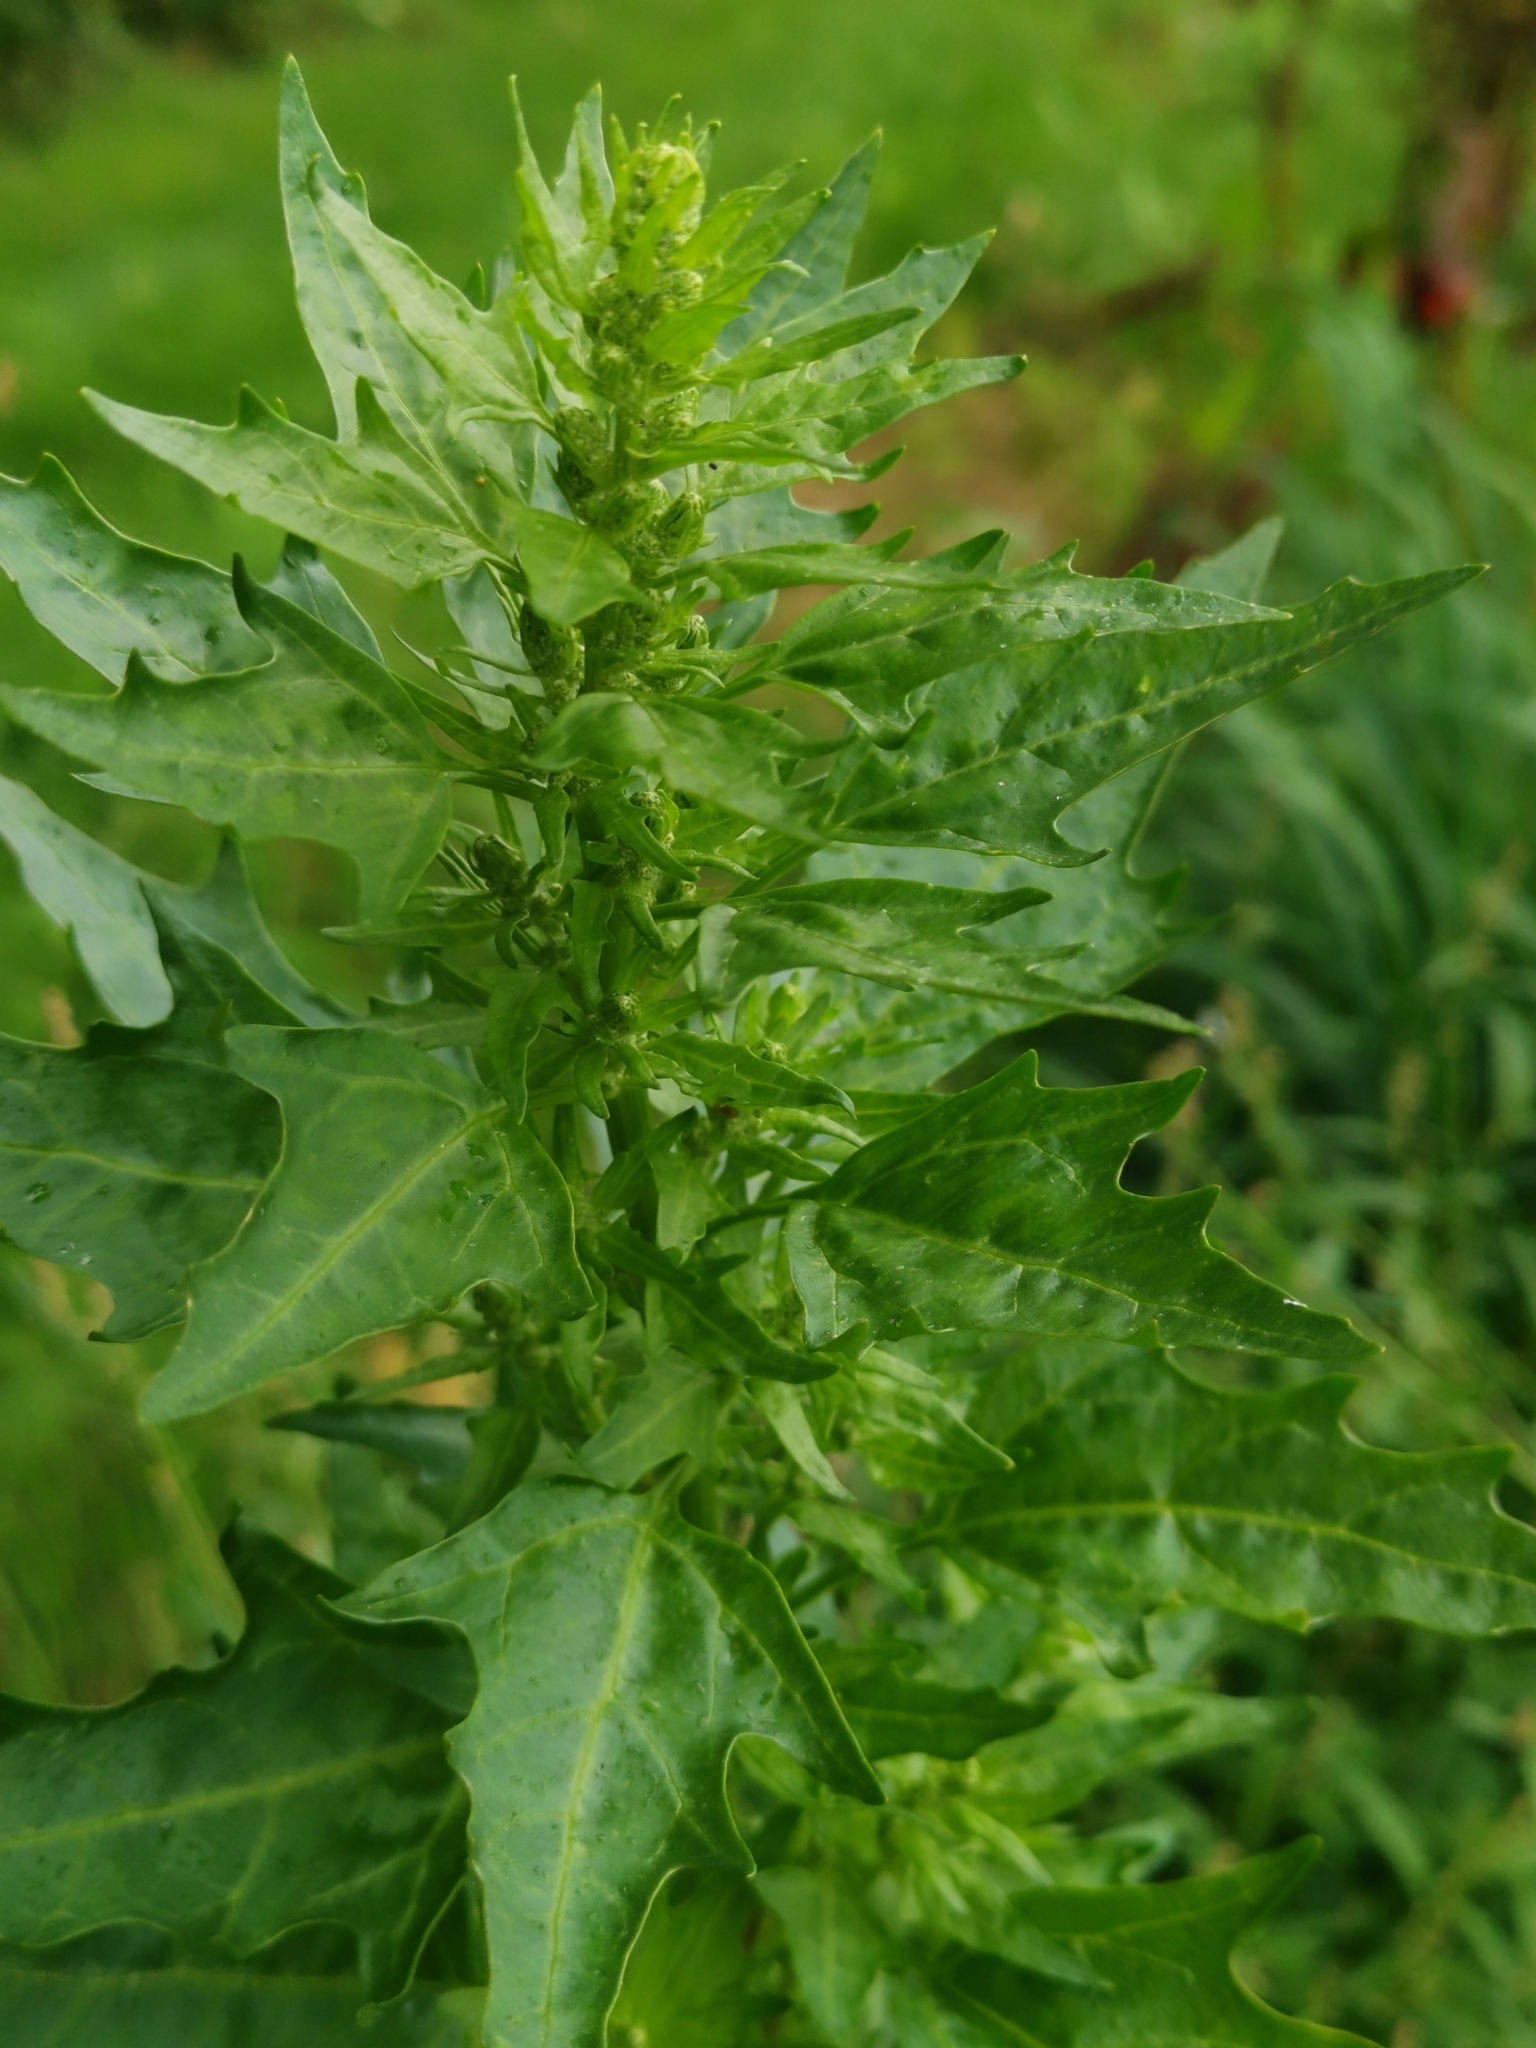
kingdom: Plantae
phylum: Tracheophyta
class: Magnoliopsida
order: Caryophyllales
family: Amaranthaceae
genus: Oxybasis
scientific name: Oxybasis rubra
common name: Red goosefoot
